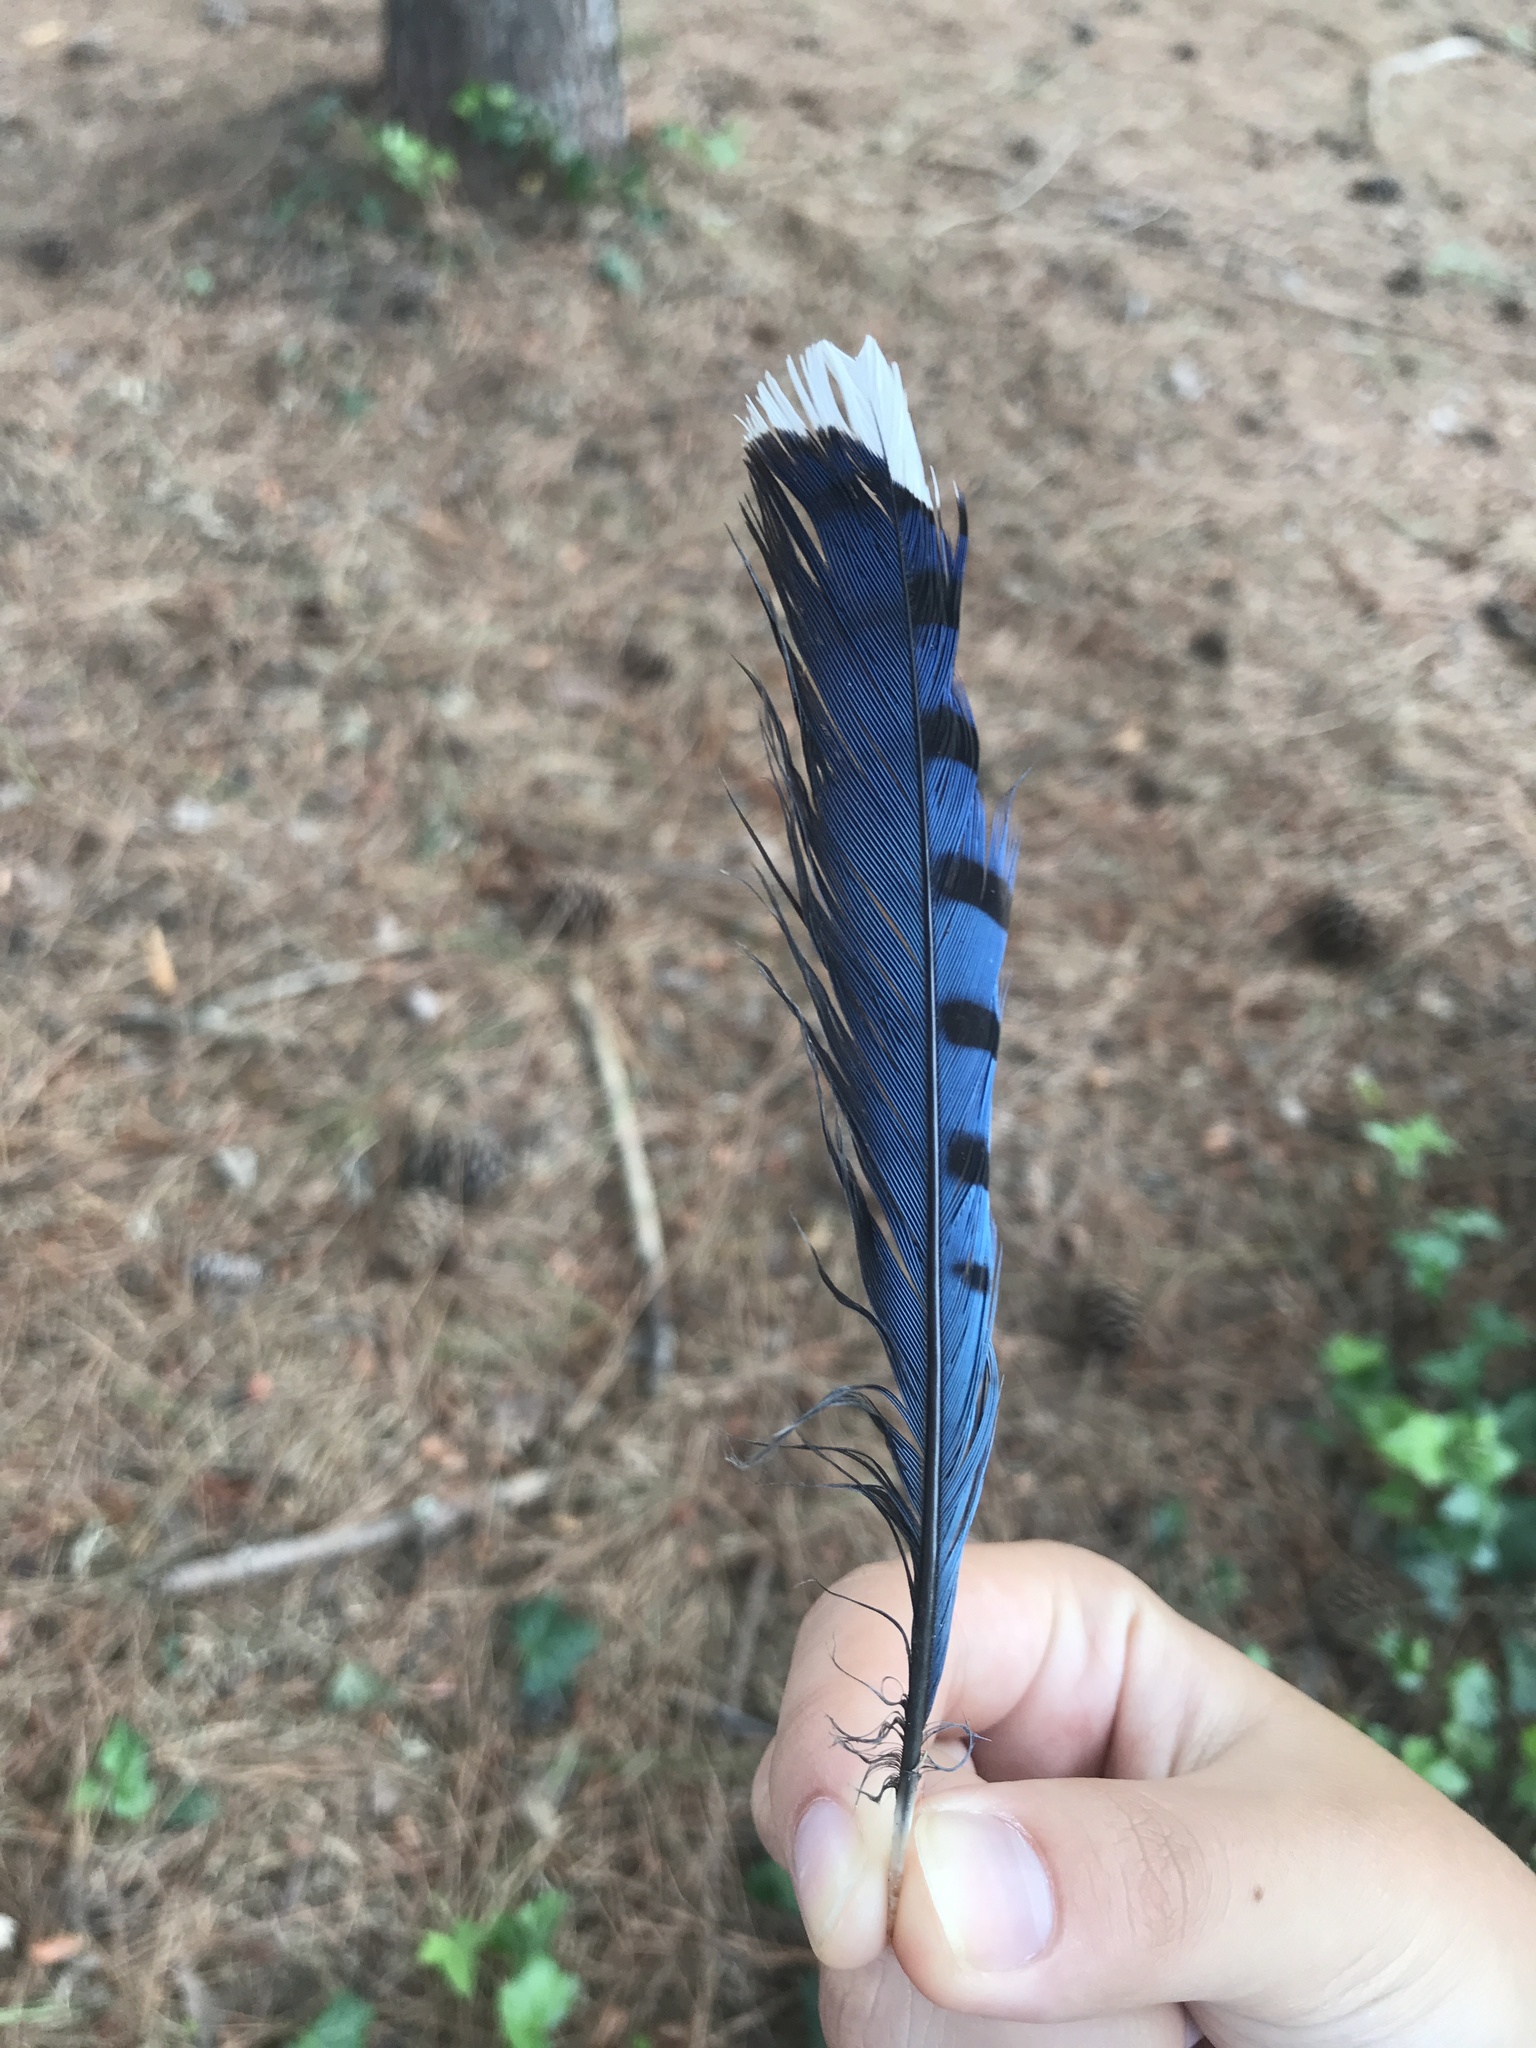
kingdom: Animalia
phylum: Chordata
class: Aves
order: Passeriformes
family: Corvidae
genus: Cyanocitta
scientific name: Cyanocitta cristata
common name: Blue jay
